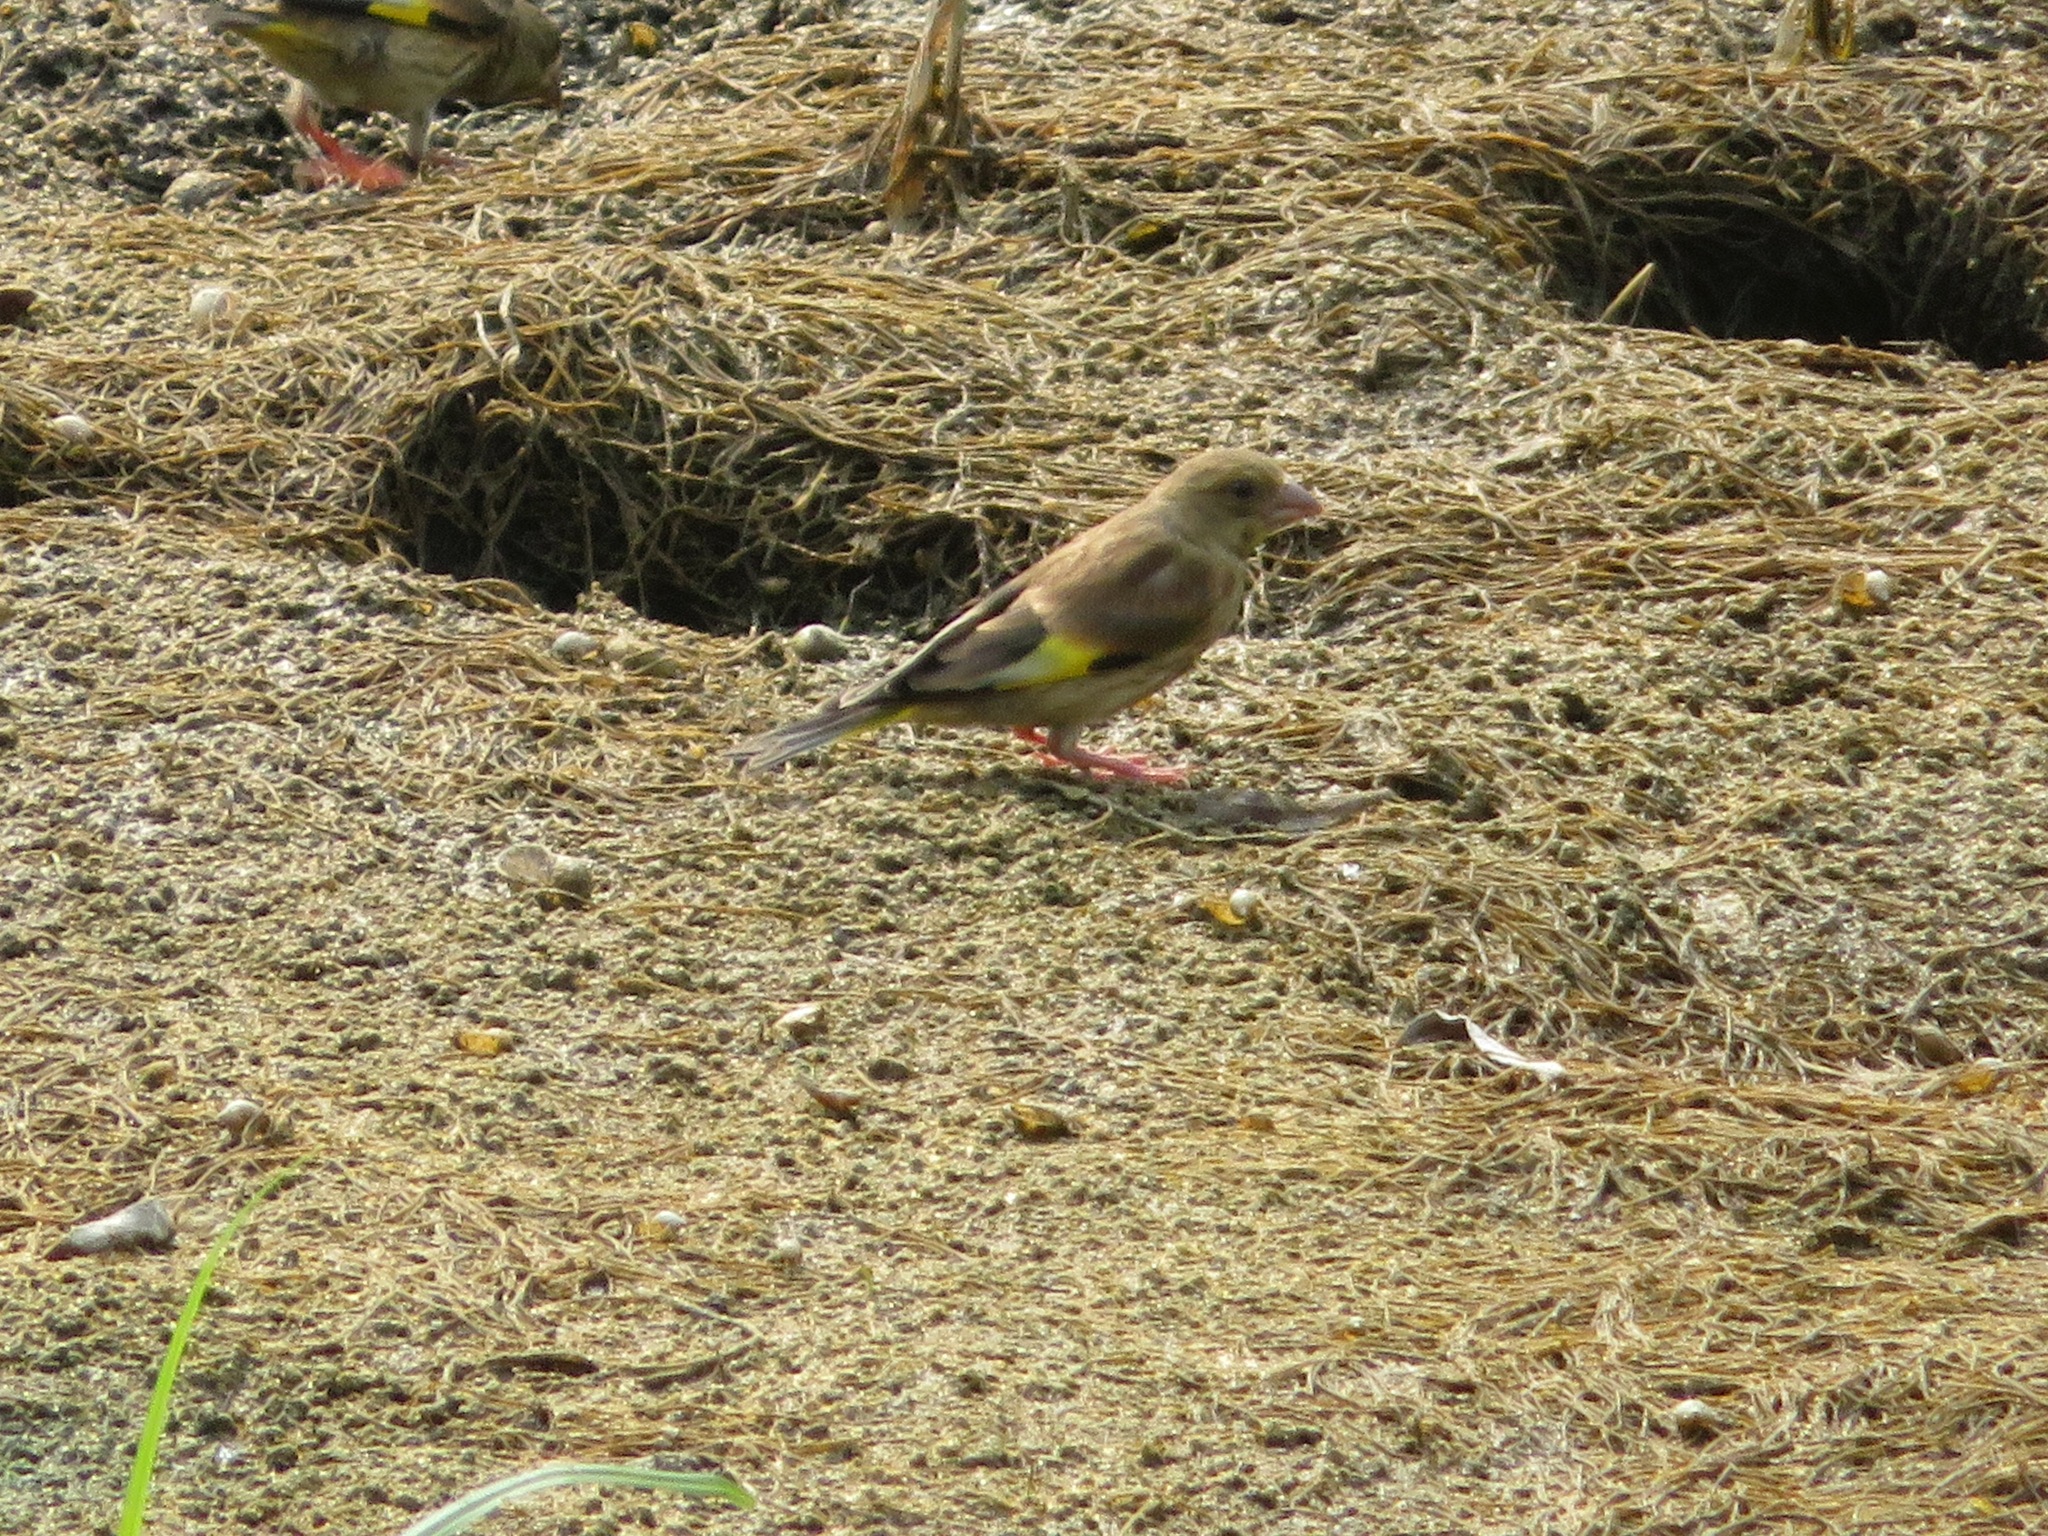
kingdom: Plantae
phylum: Tracheophyta
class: Liliopsida
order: Poales
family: Poaceae
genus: Chloris
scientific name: Chloris sinica
